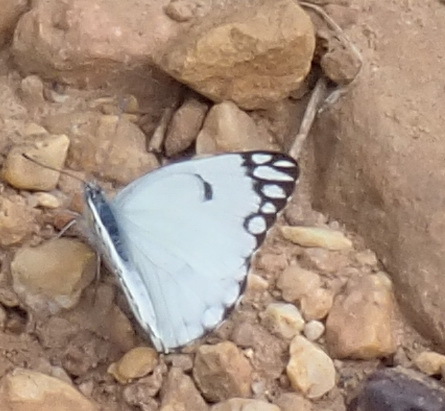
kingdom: Animalia
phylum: Arthropoda
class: Insecta
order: Lepidoptera
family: Pieridae
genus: Belenois
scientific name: Belenois aurota
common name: Brown-veined white
